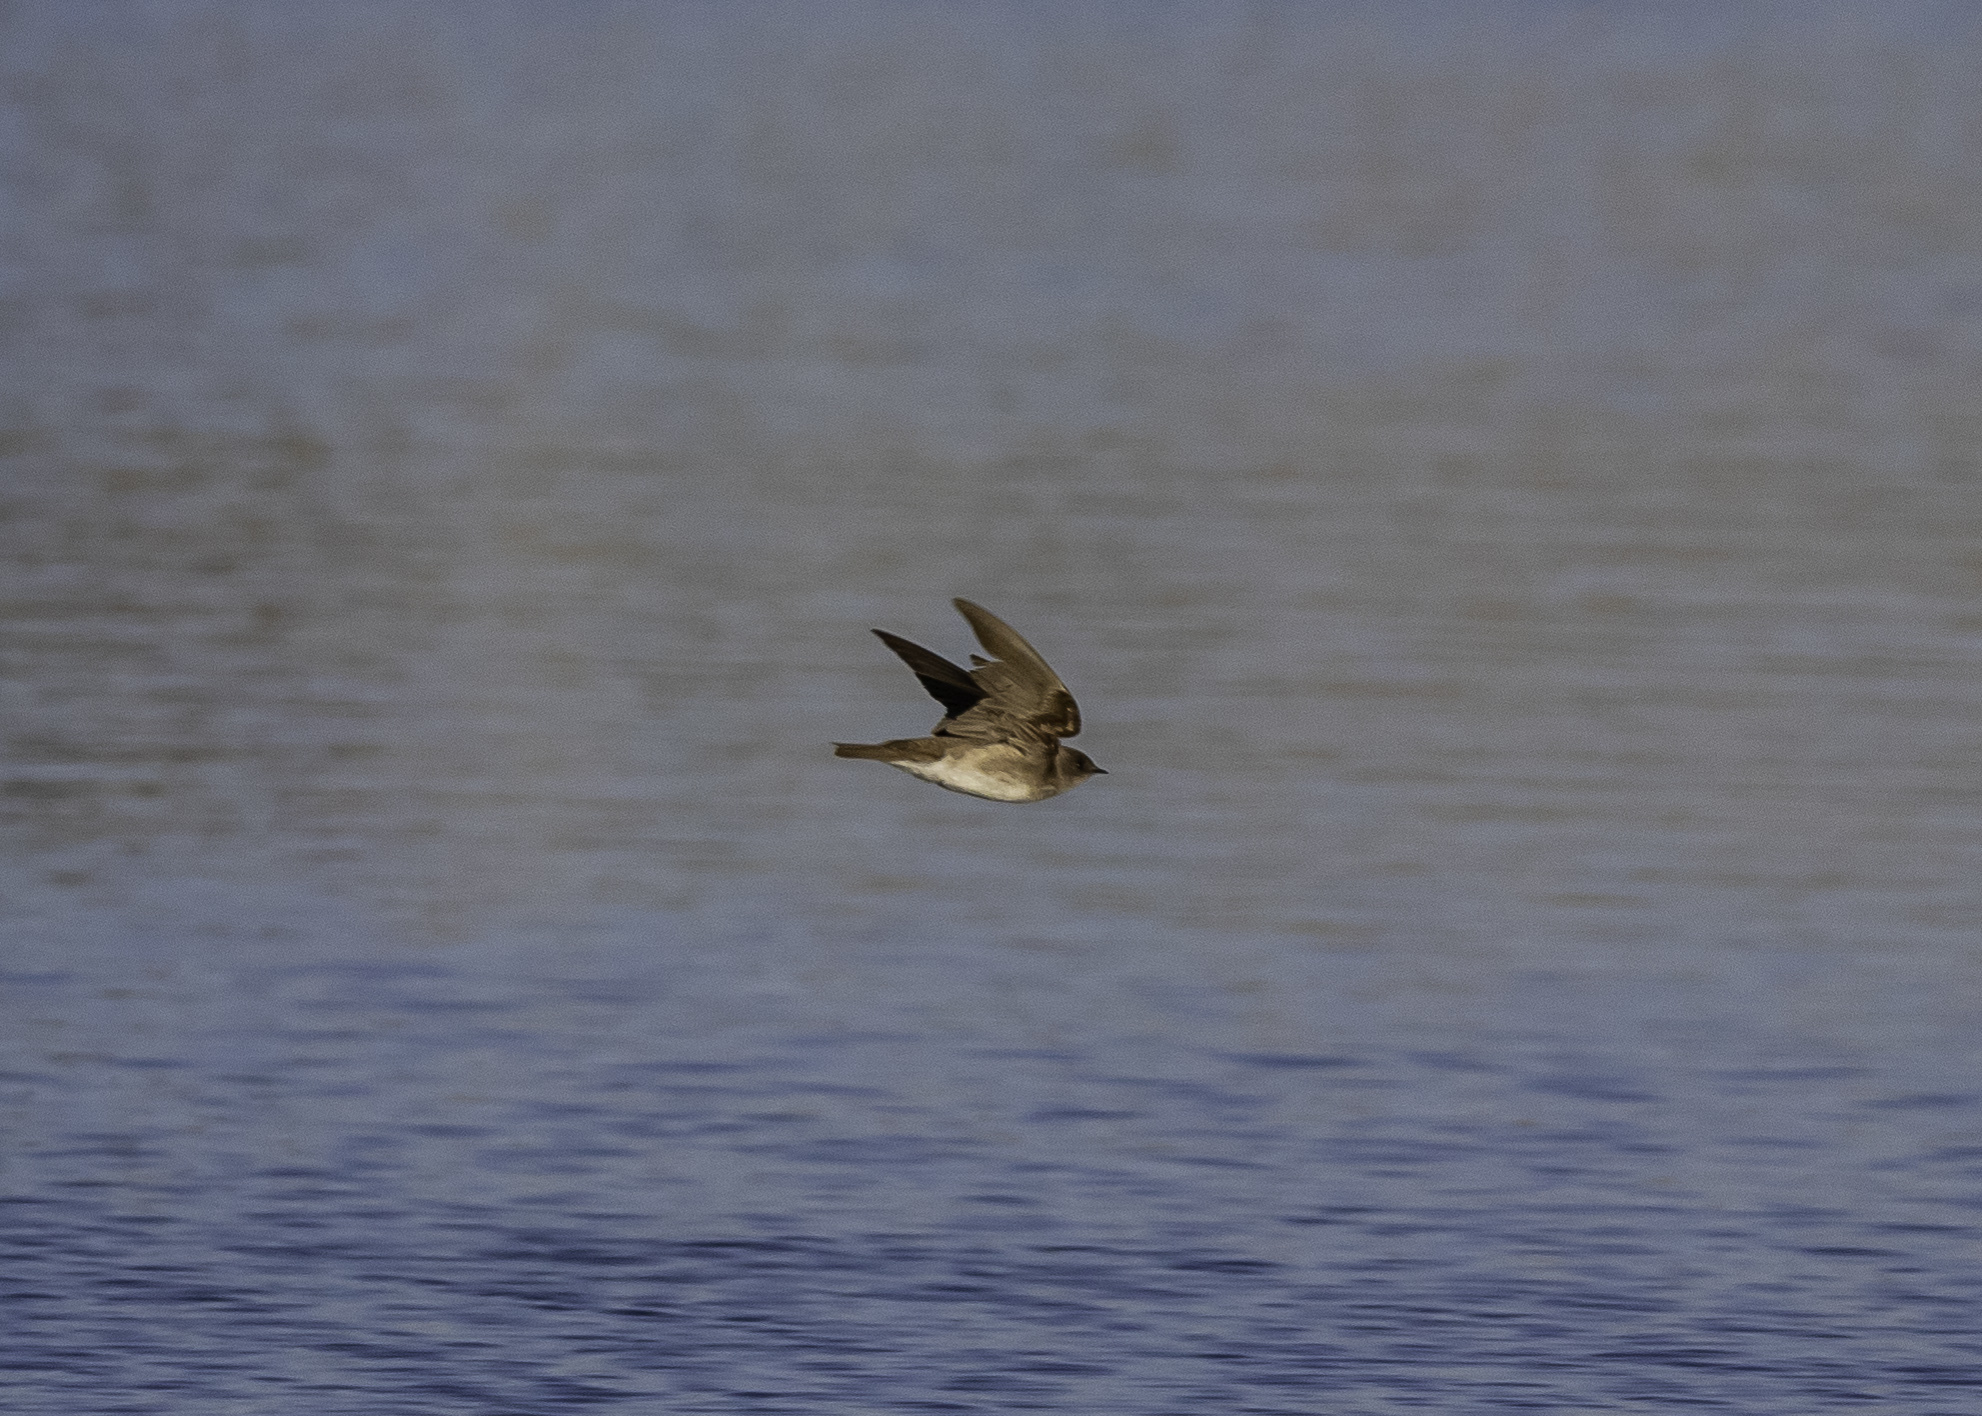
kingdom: Animalia
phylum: Chordata
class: Aves
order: Passeriformes
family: Hirundinidae
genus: Stelgidopteryx
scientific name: Stelgidopteryx serripennis
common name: Northern rough-winged swallow
